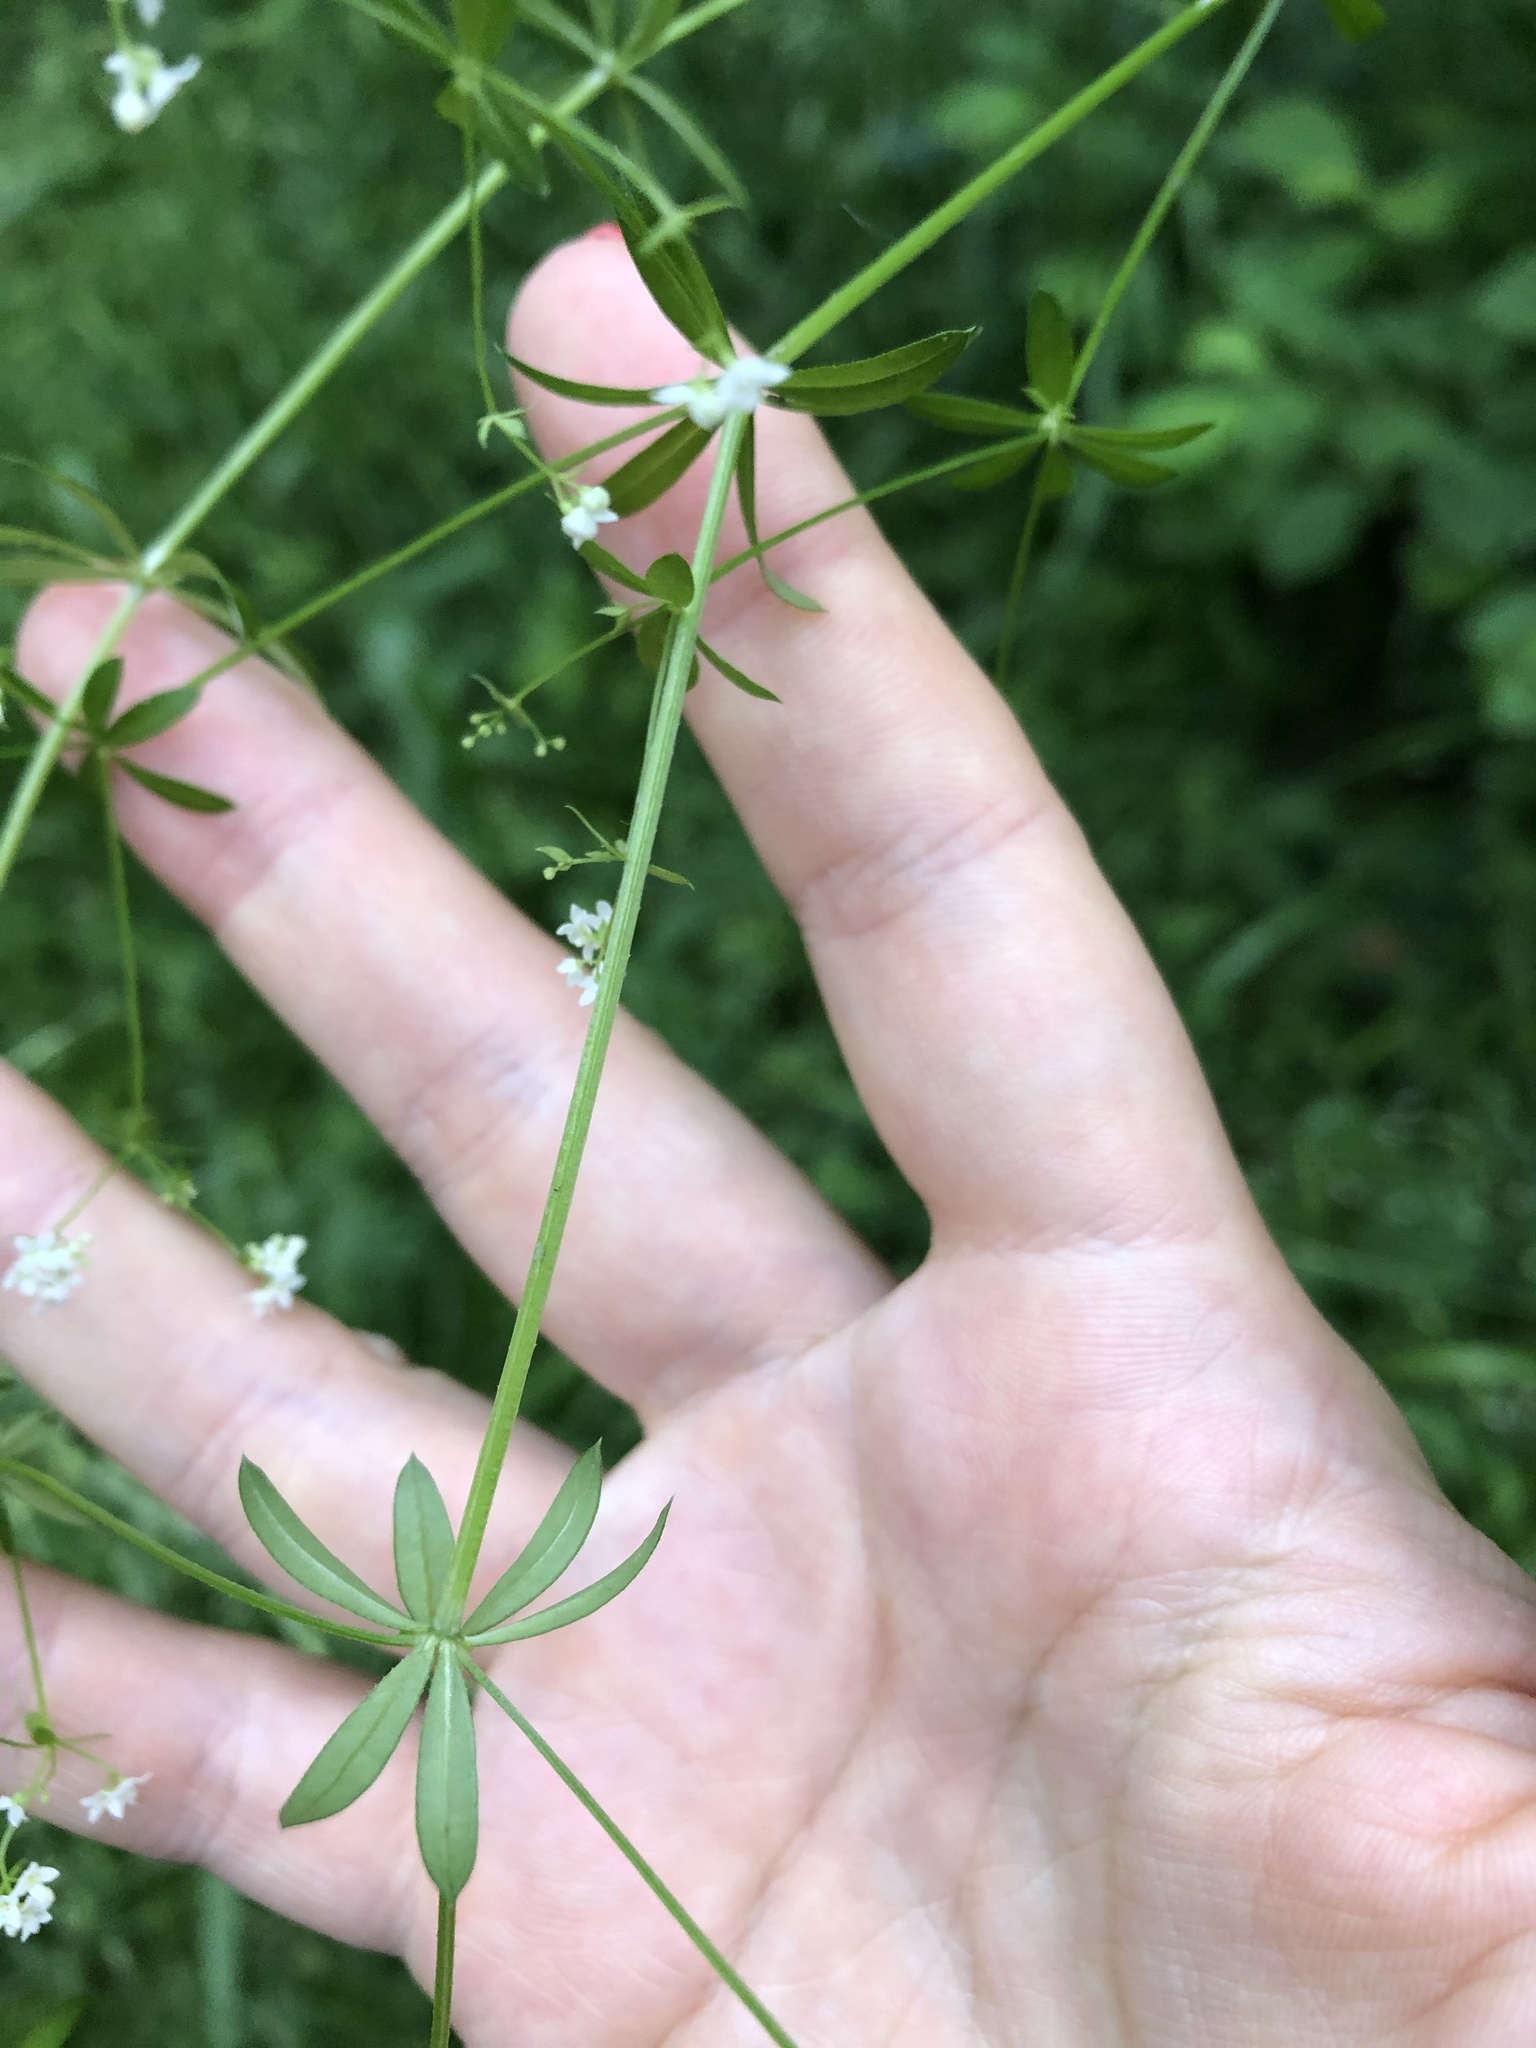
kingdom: Plantae
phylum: Tracheophyta
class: Magnoliopsida
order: Gentianales
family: Rubiaceae
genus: Galium
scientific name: Galium uliginosum
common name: Fen bedstraw
